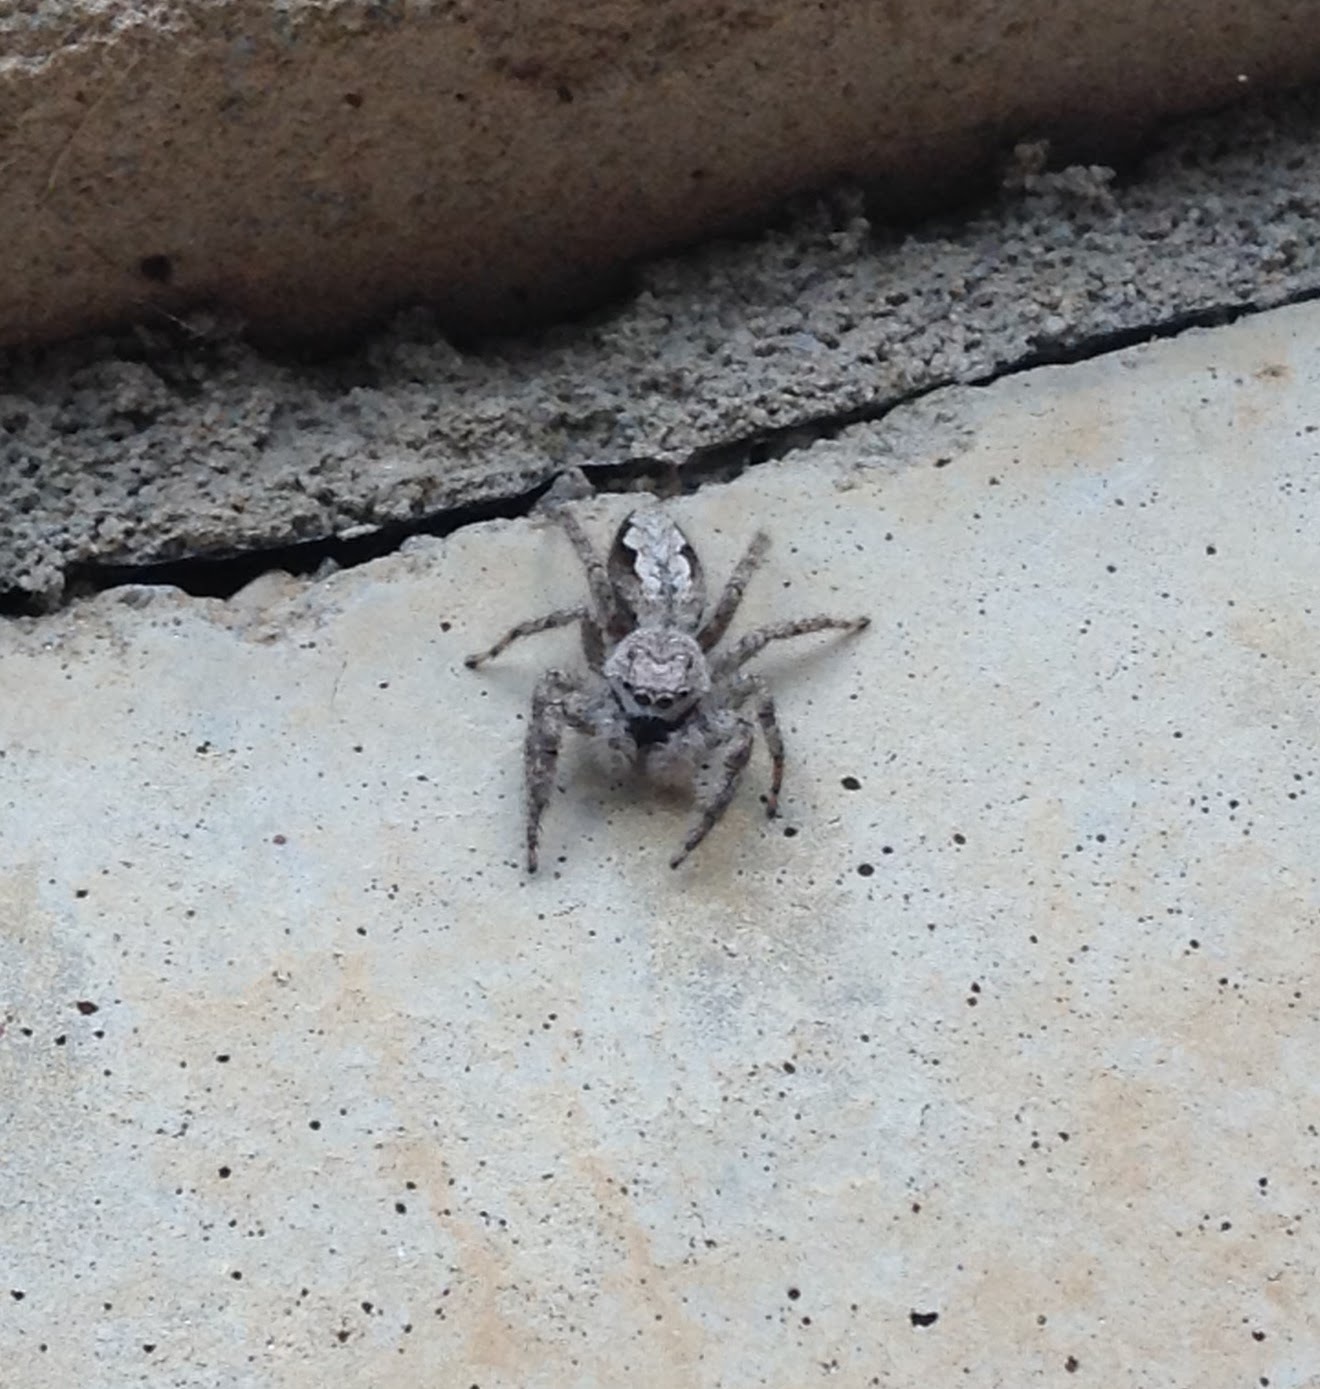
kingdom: Animalia
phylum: Arthropoda
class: Arachnida
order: Araneae
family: Salticidae
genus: Platycryptus
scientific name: Platycryptus undatus
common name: Tan jumping spider
